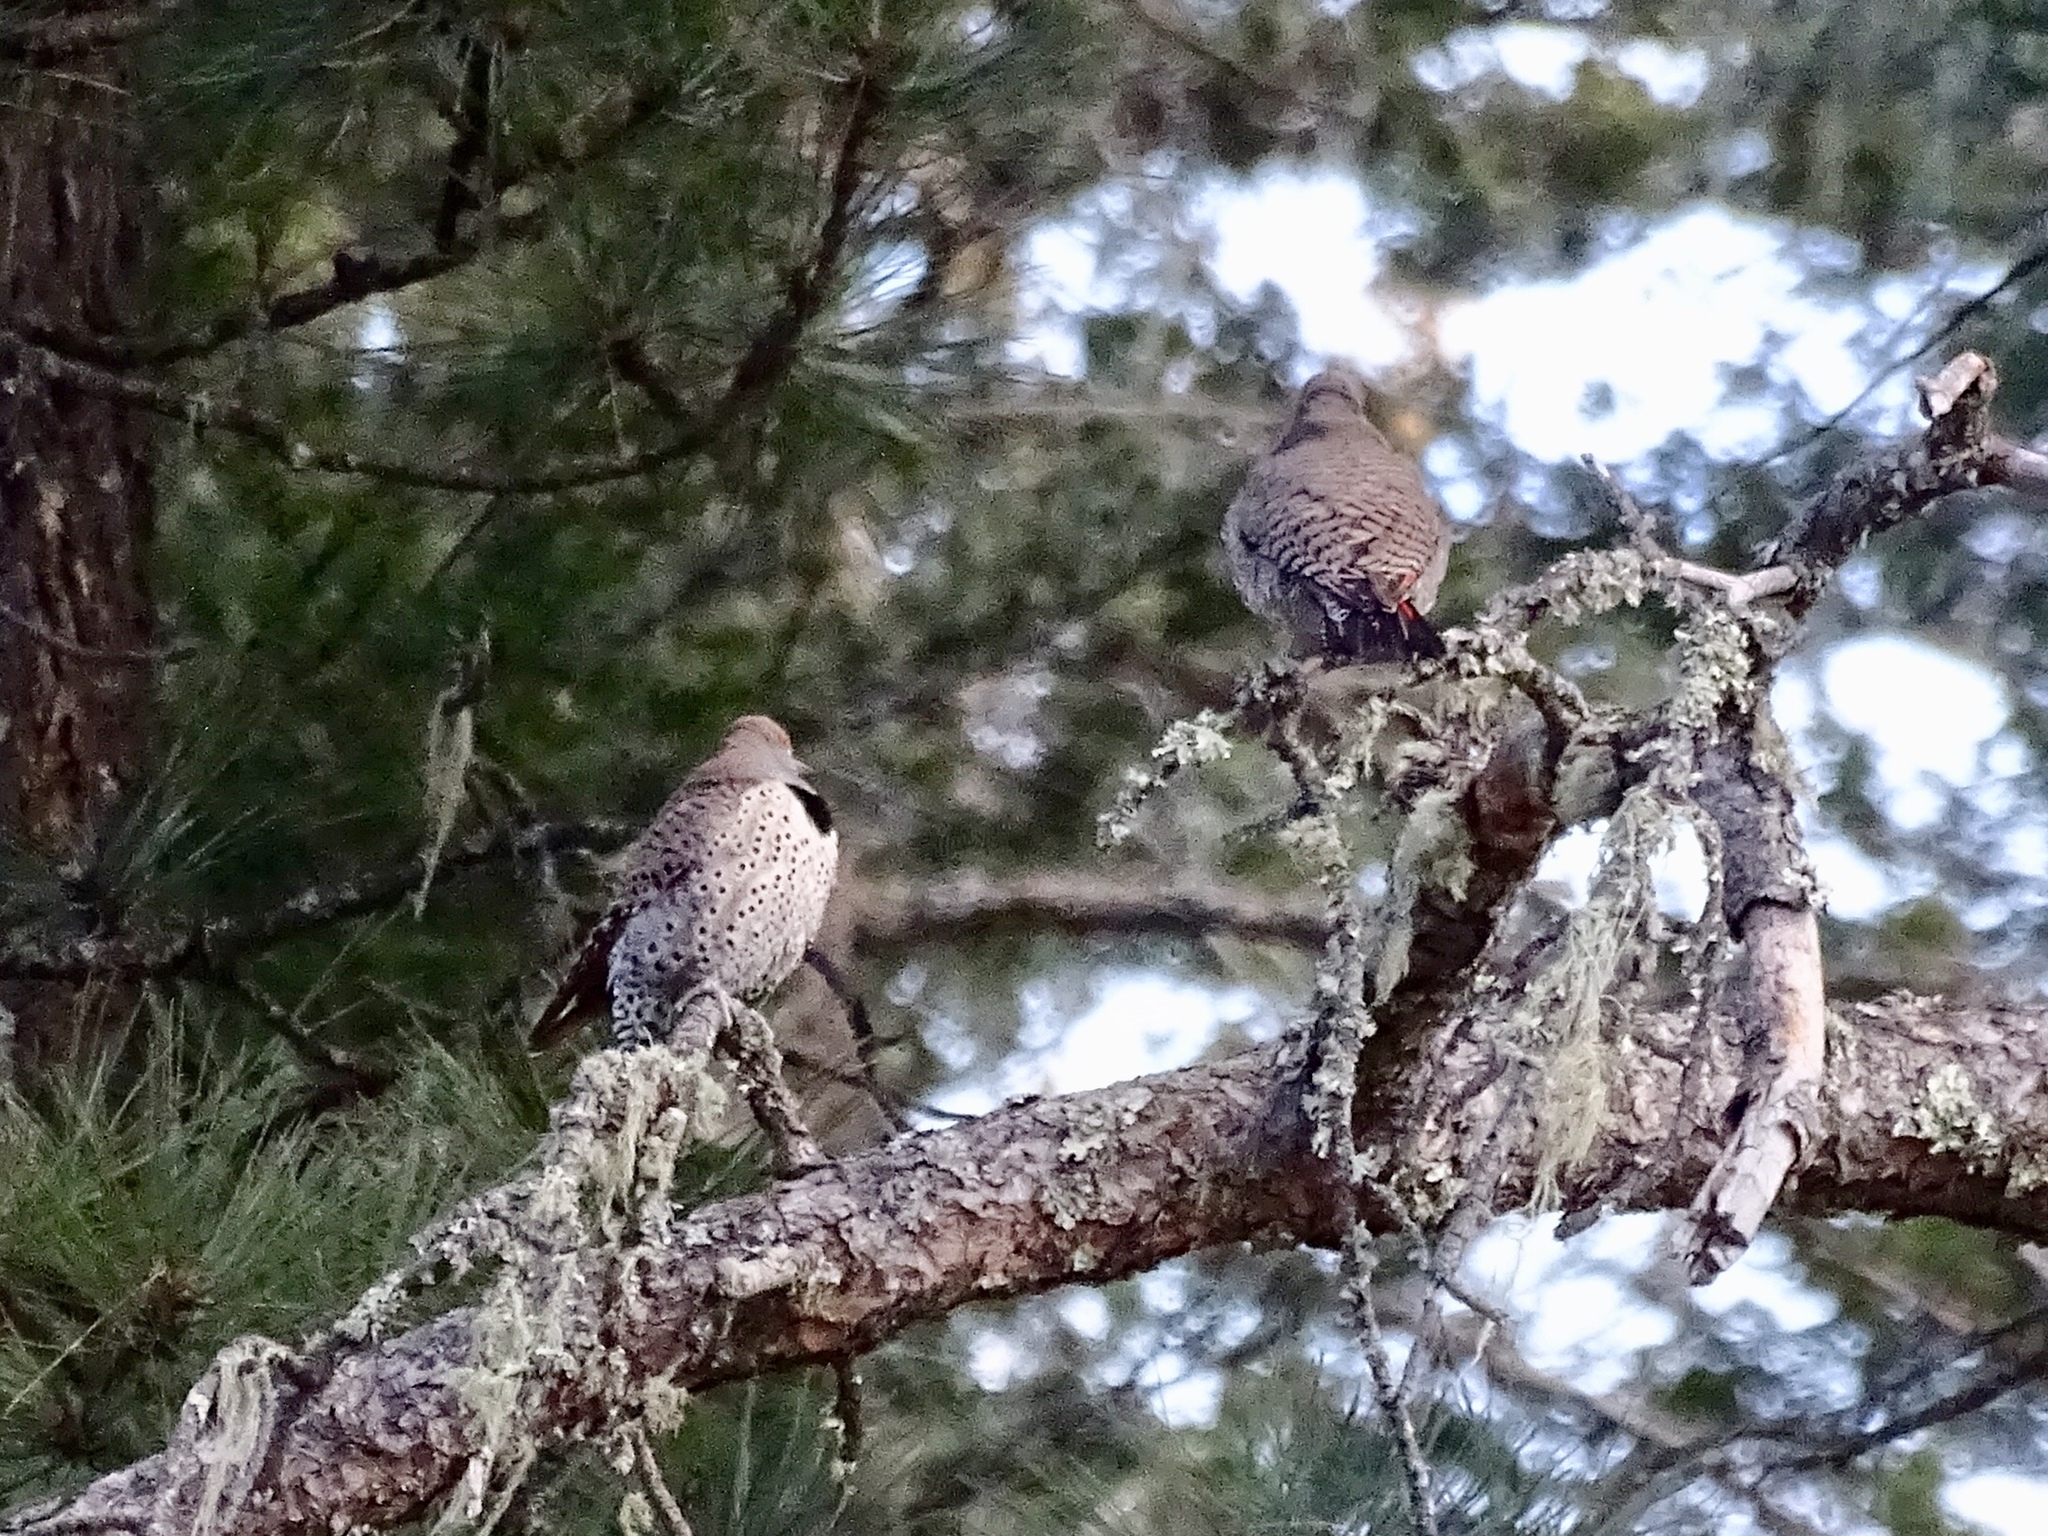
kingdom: Animalia
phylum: Chordata
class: Aves
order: Piciformes
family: Picidae
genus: Colaptes
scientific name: Colaptes auratus
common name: Northern flicker
